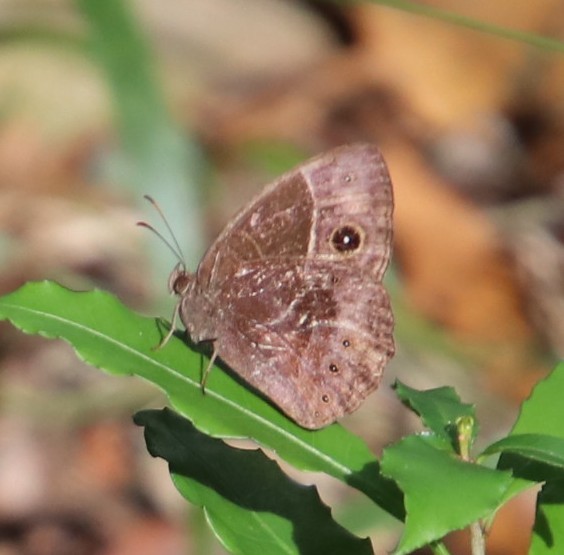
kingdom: Animalia
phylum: Arthropoda
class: Insecta
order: Lepidoptera
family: Nymphalidae
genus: Mycalesis
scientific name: Mycalesis rhacotis
